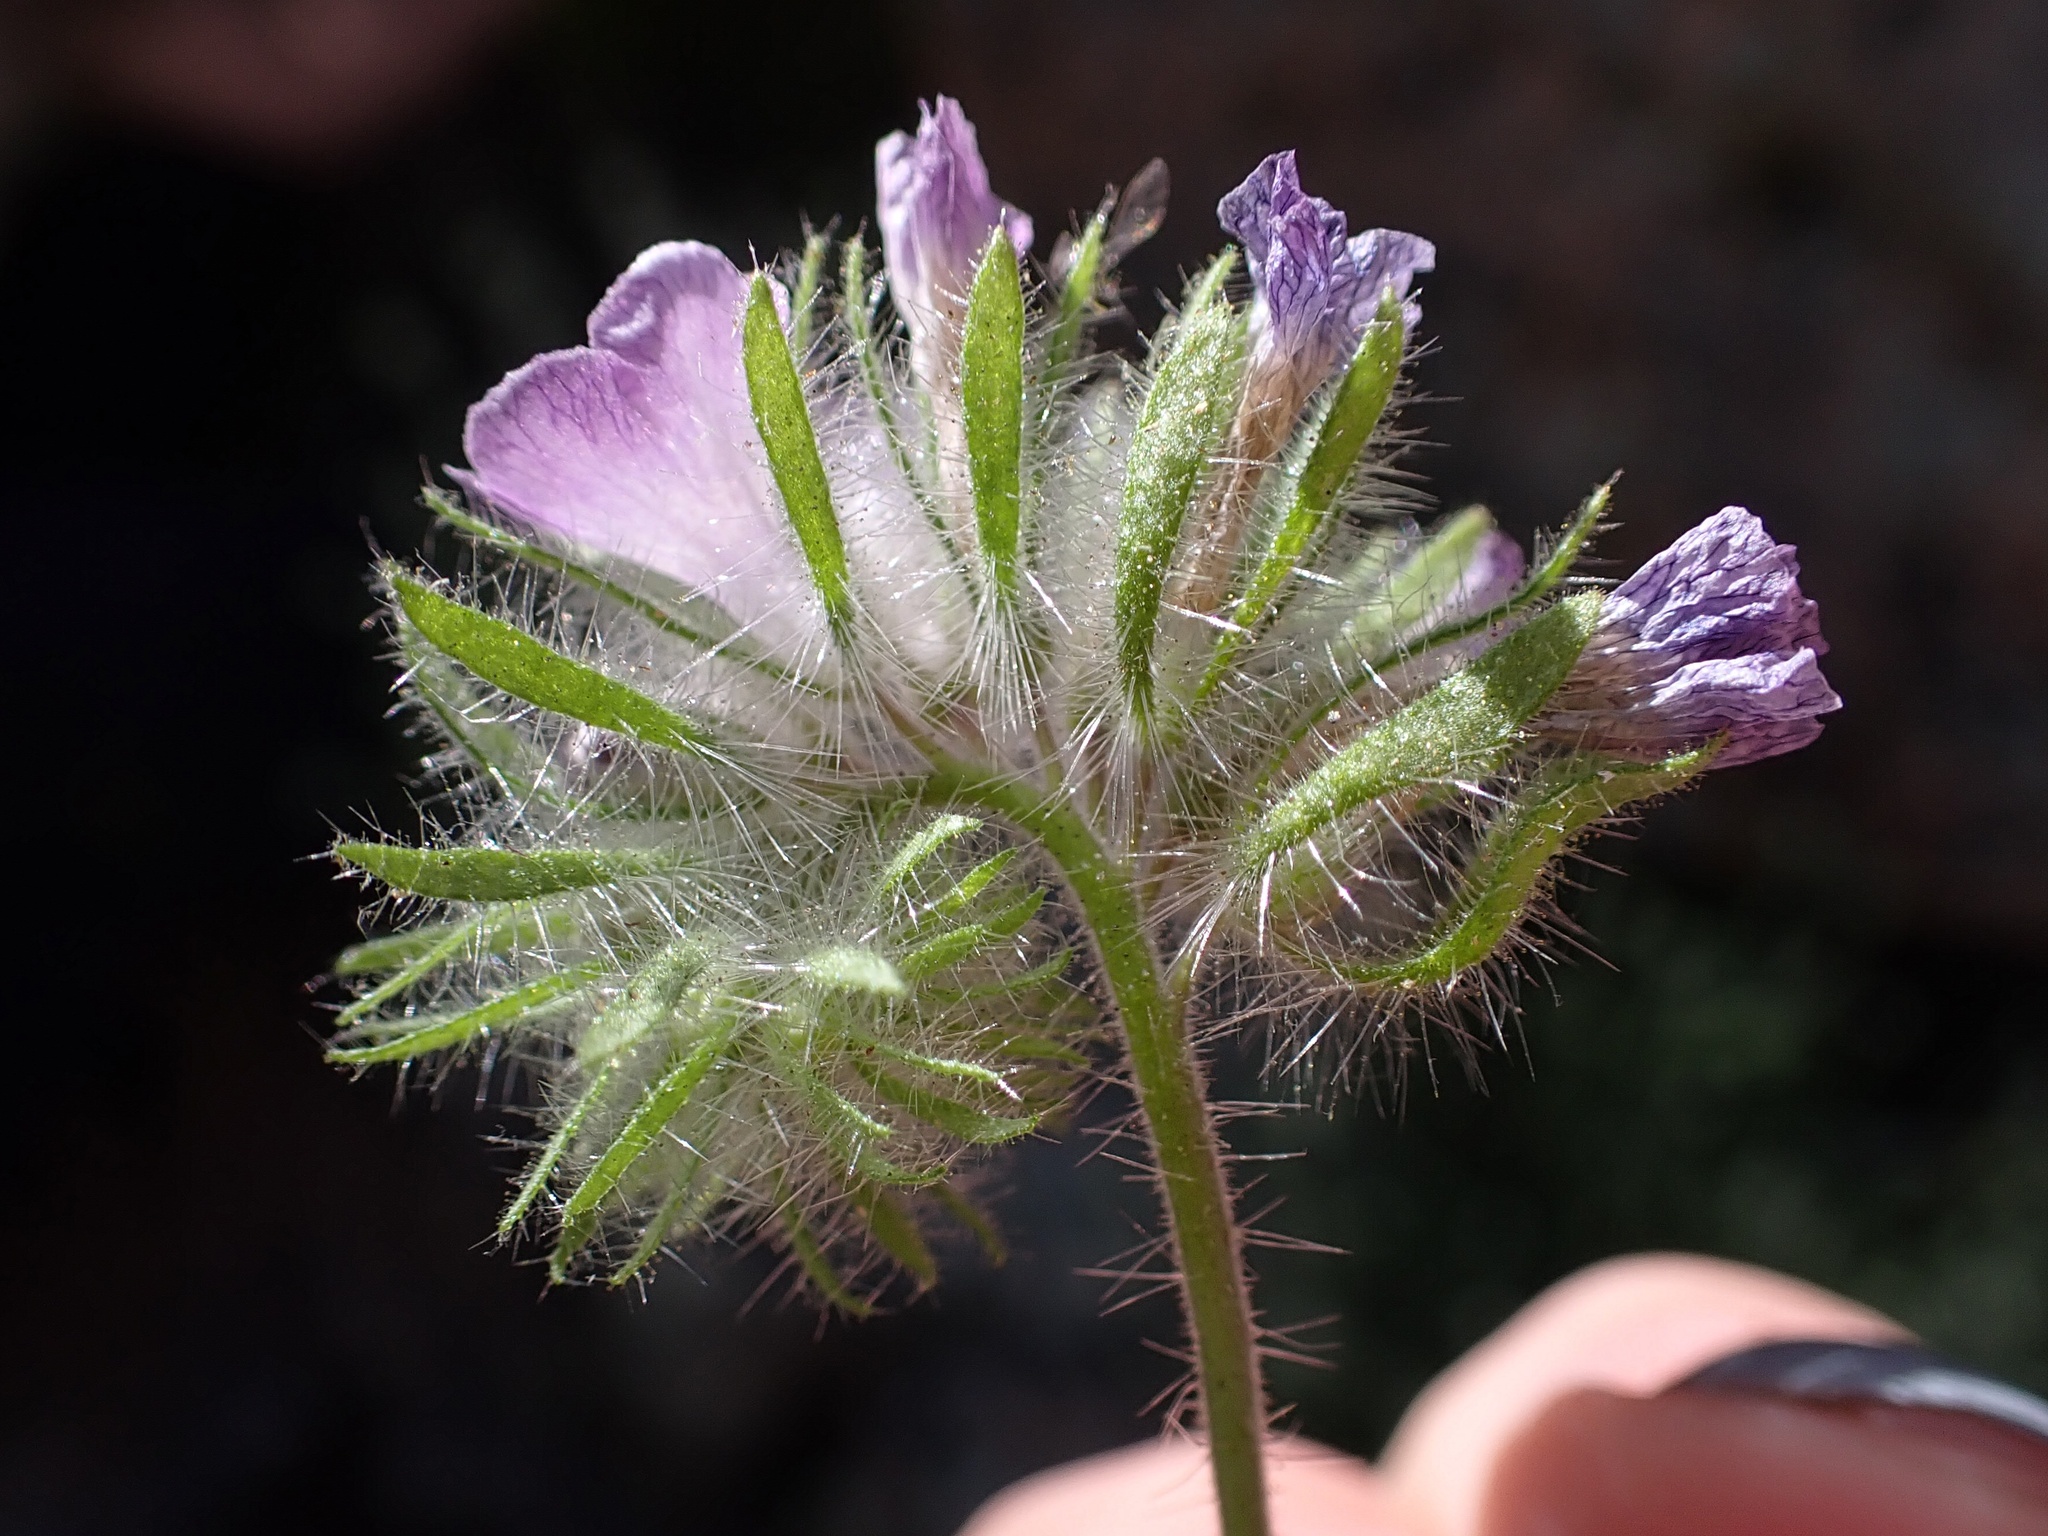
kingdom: Plantae
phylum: Tracheophyta
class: Magnoliopsida
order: Boraginales
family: Hydrophyllaceae
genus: Phacelia
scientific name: Phacelia cryptantha
